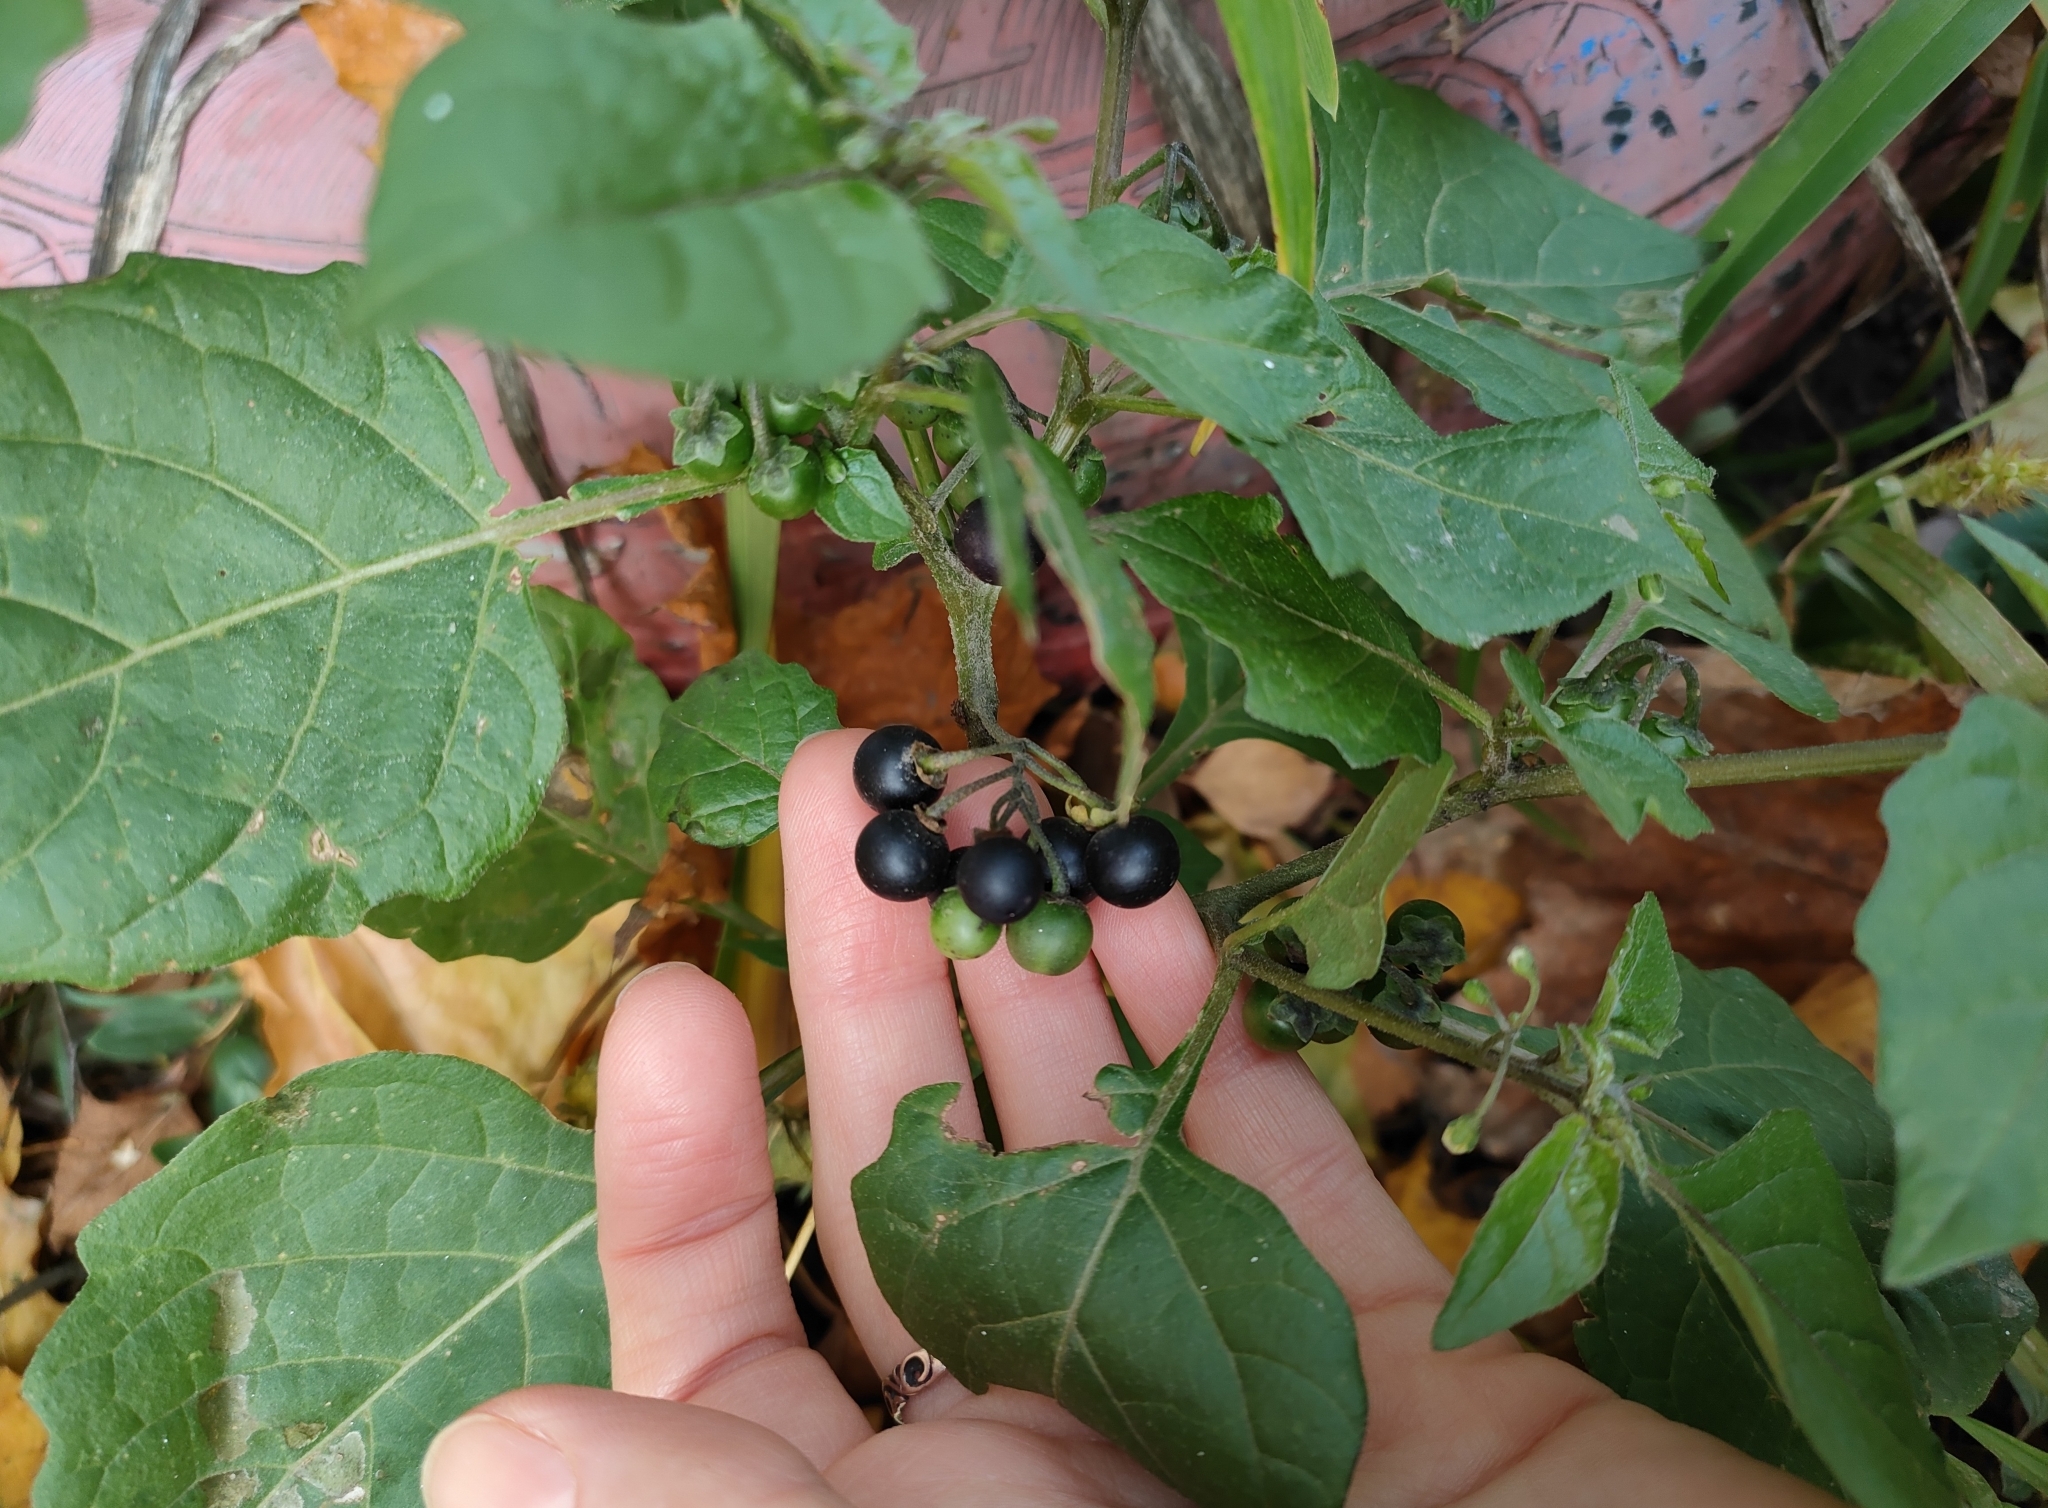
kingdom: Plantae
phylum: Tracheophyta
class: Magnoliopsida
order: Solanales
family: Solanaceae
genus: Solanum
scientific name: Solanum nigrum
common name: Black nightshade
